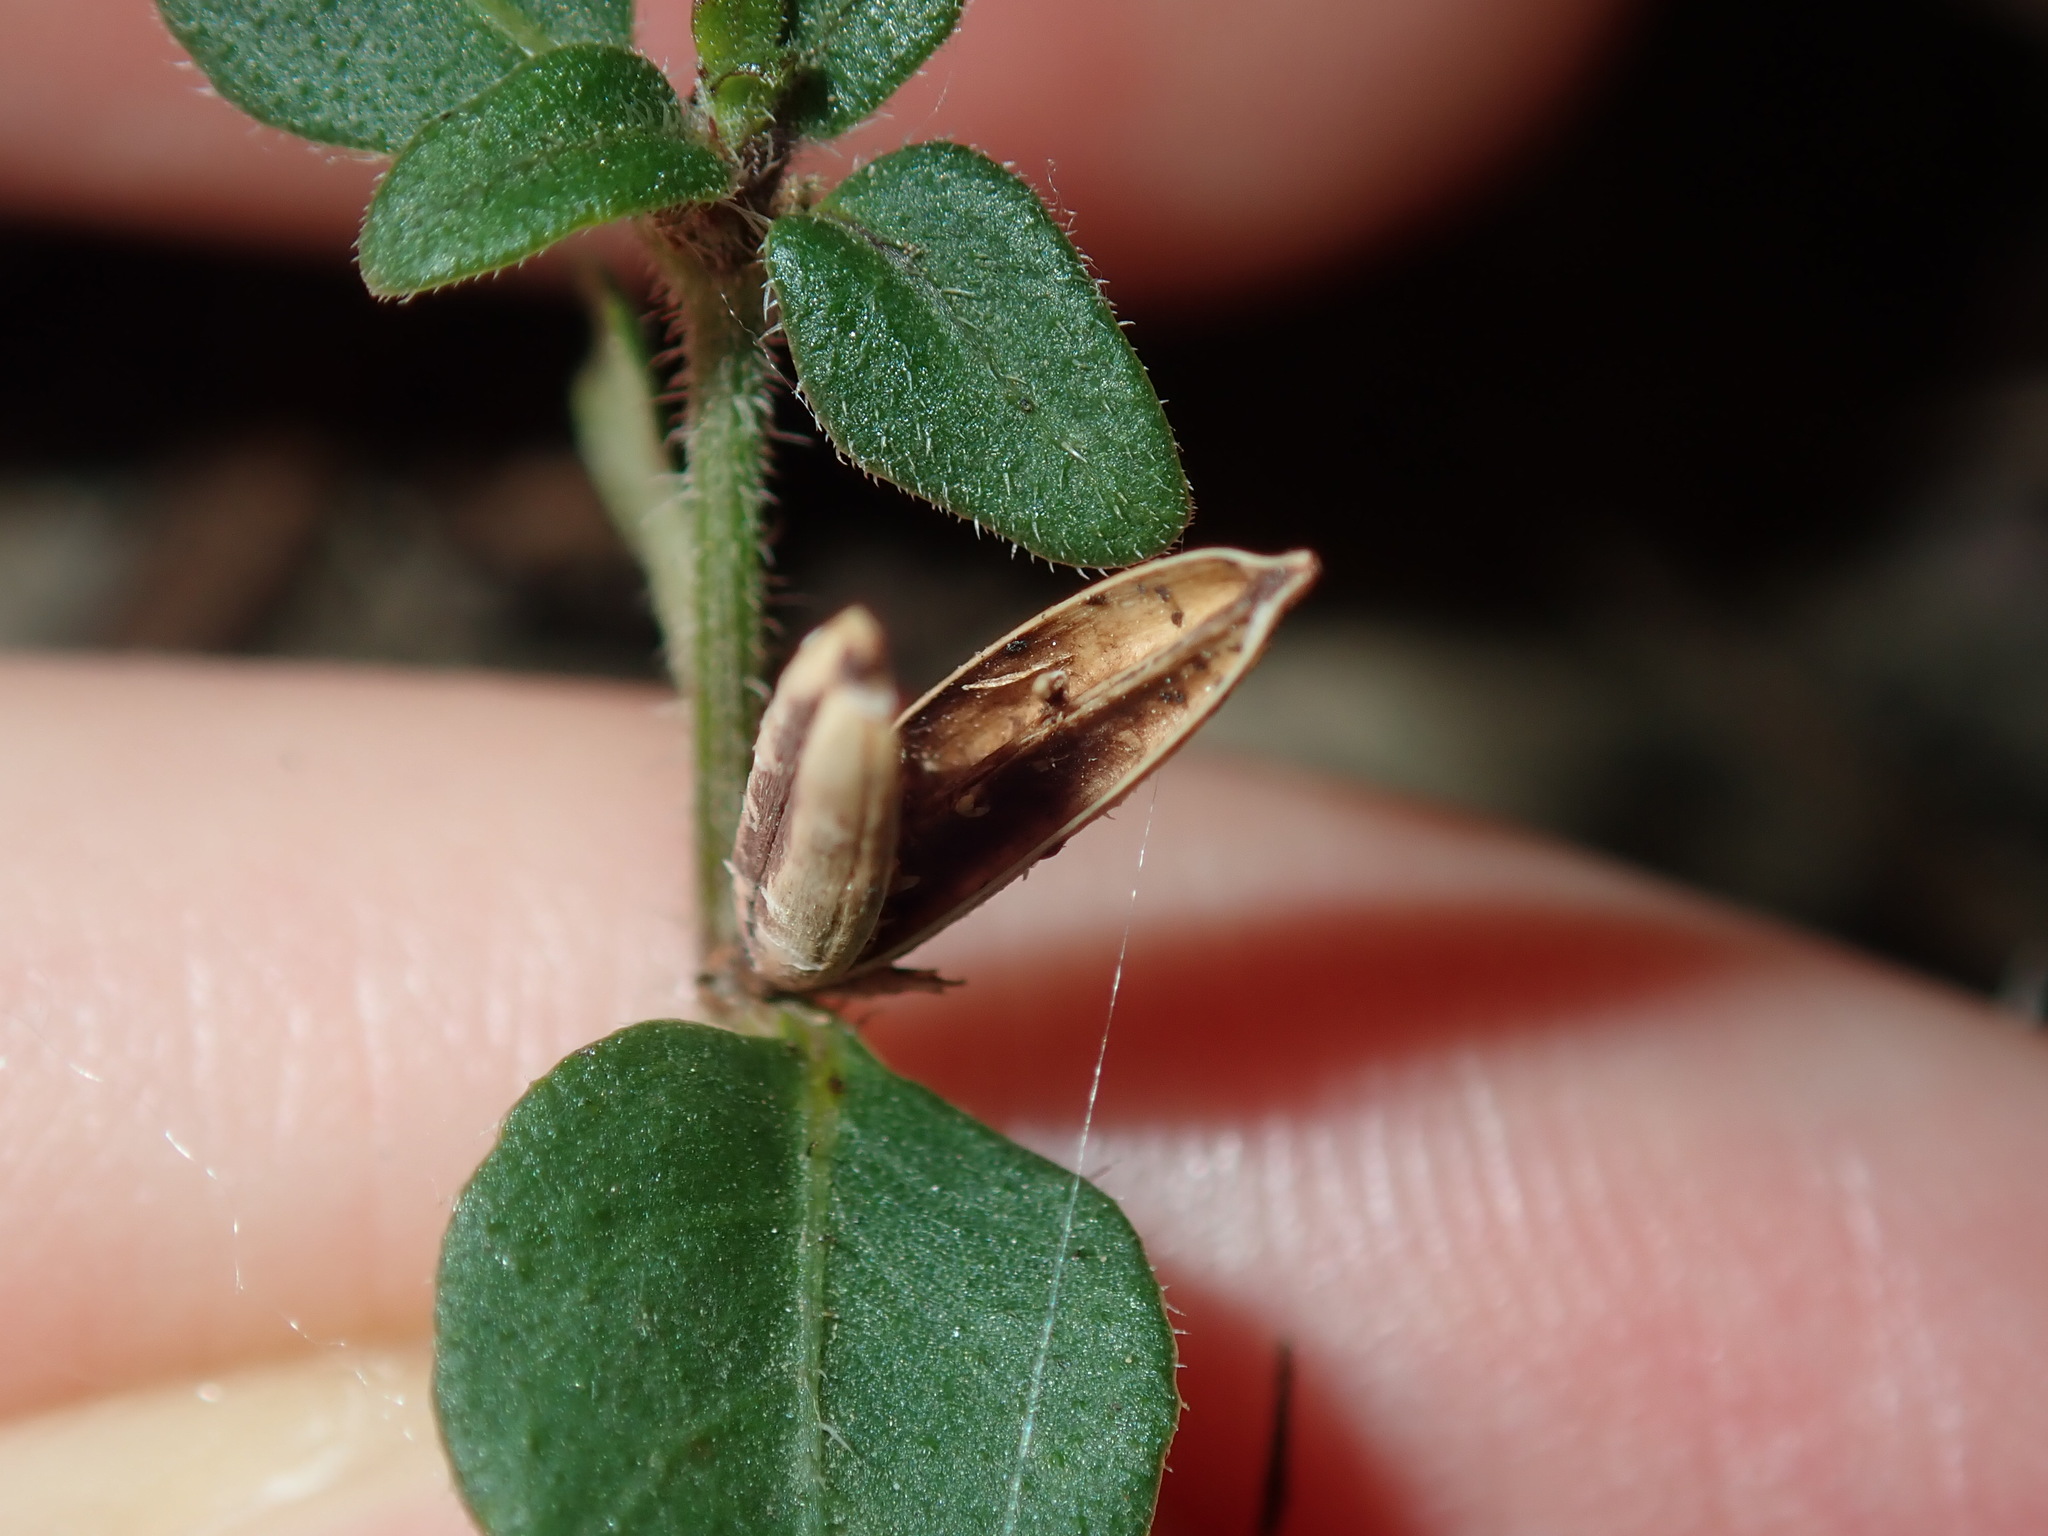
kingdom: Plantae
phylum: Tracheophyta
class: Magnoliopsida
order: Lamiales
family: Acanthaceae
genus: Brunoniella
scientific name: Brunoniella australis
